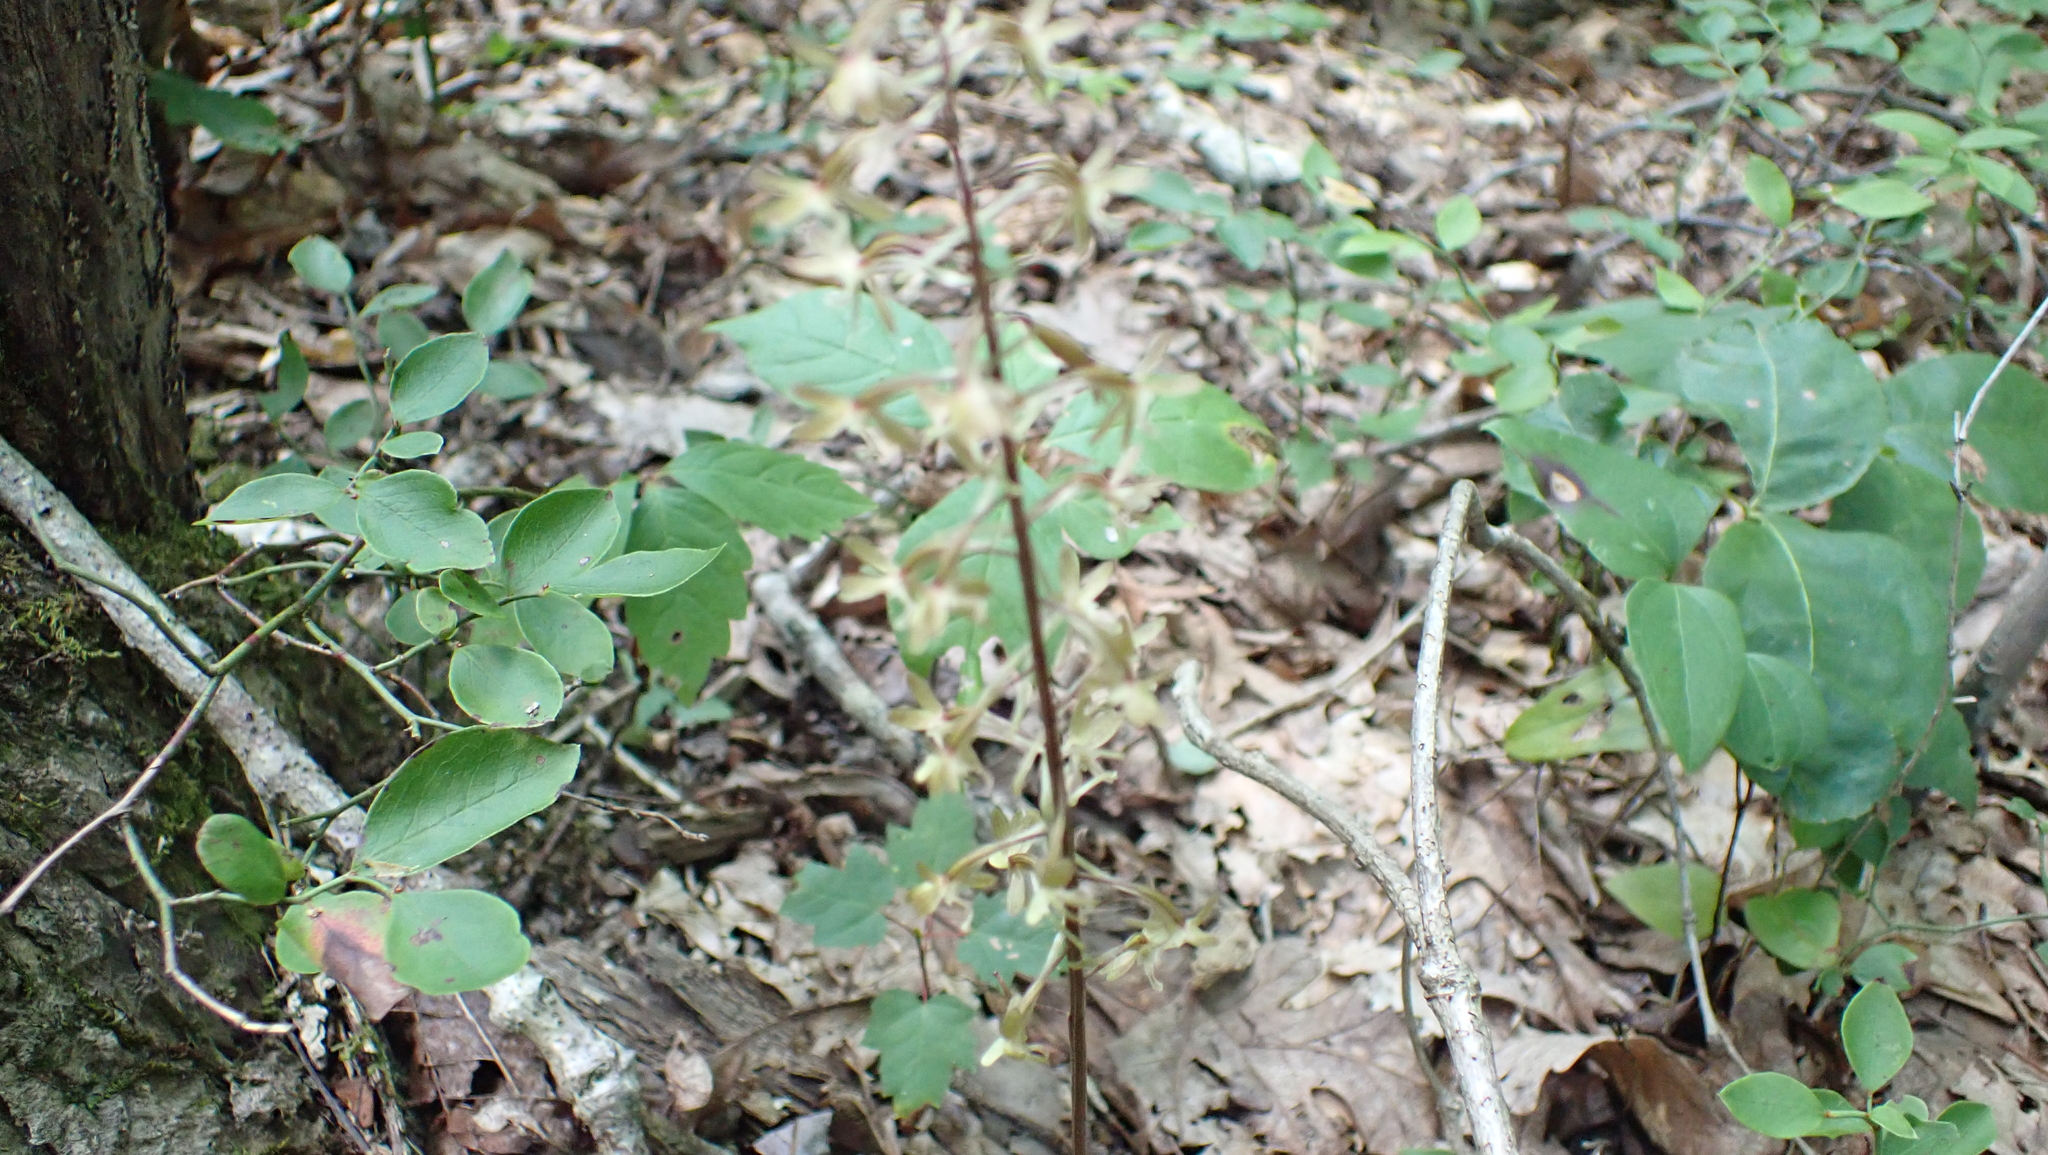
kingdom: Plantae
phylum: Tracheophyta
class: Liliopsida
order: Asparagales
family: Orchidaceae
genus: Tipularia
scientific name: Tipularia discolor
